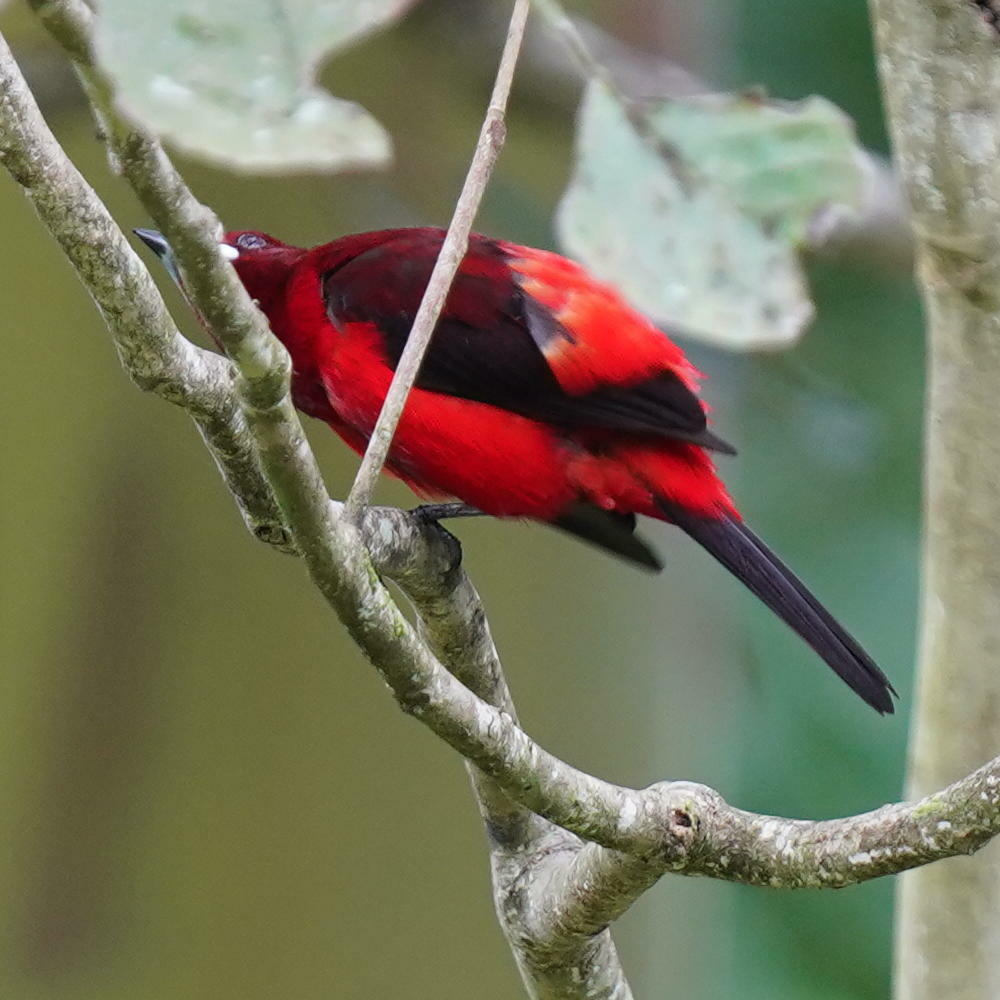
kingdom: Animalia
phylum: Chordata
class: Aves
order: Passeriformes
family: Thraupidae
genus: Ramphocelus
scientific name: Ramphocelus dimidiatus
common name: Crimson-backed tanager
